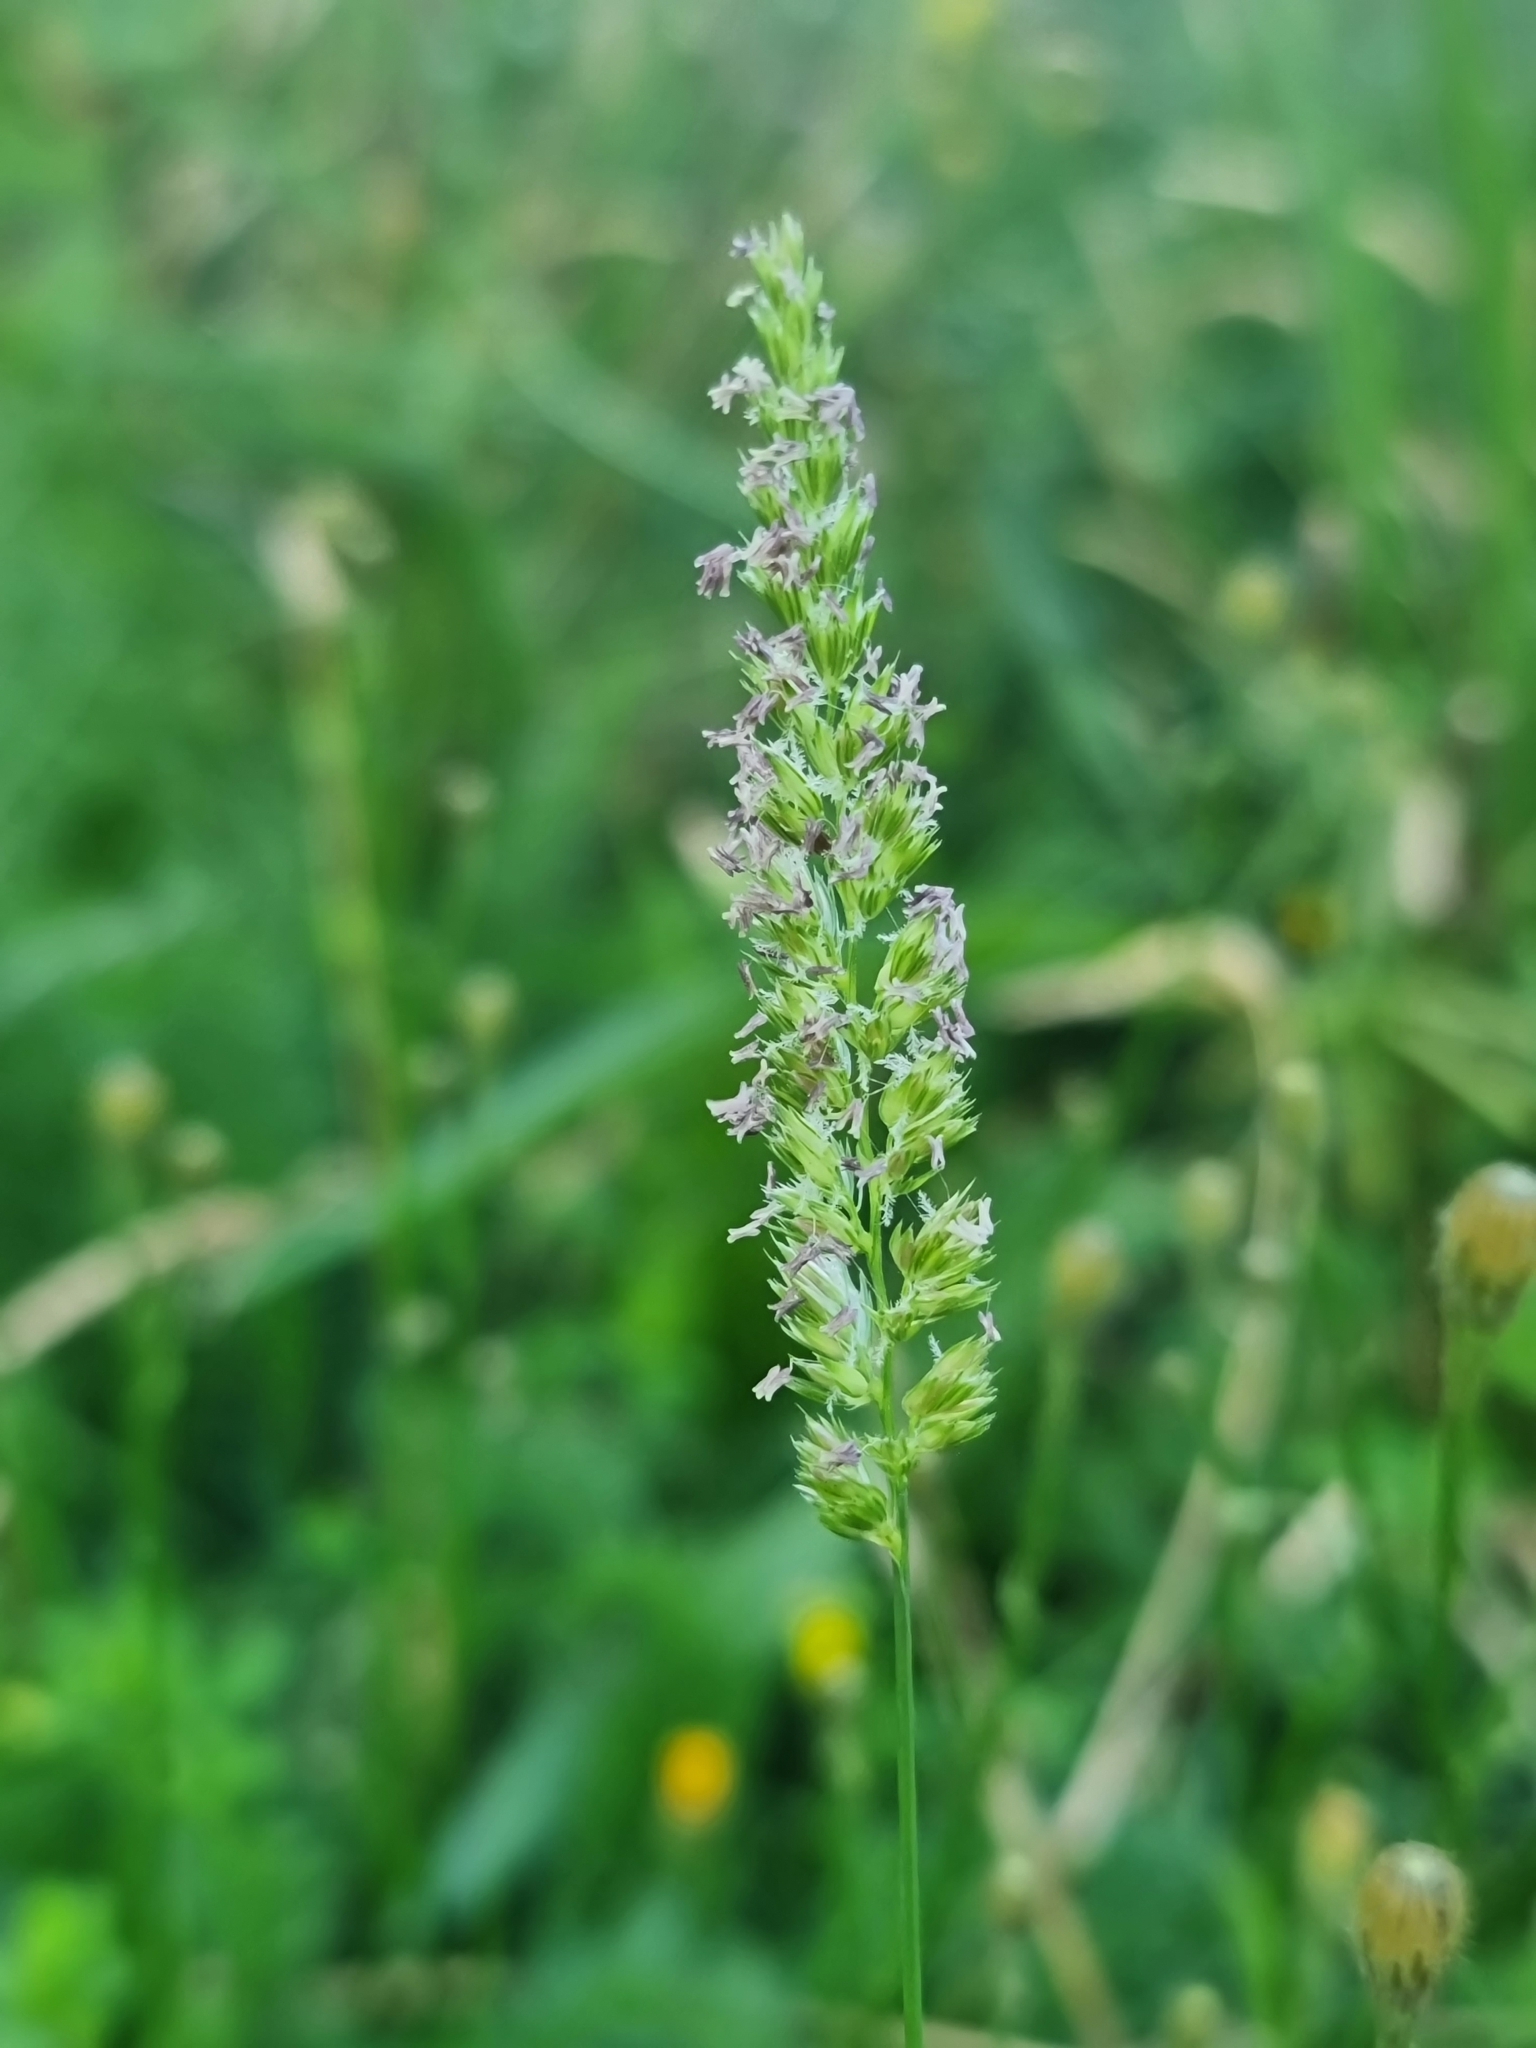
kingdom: Plantae
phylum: Tracheophyta
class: Liliopsida
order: Poales
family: Poaceae
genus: Cynosurus
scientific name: Cynosurus cristatus
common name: Crested dog's-tail
